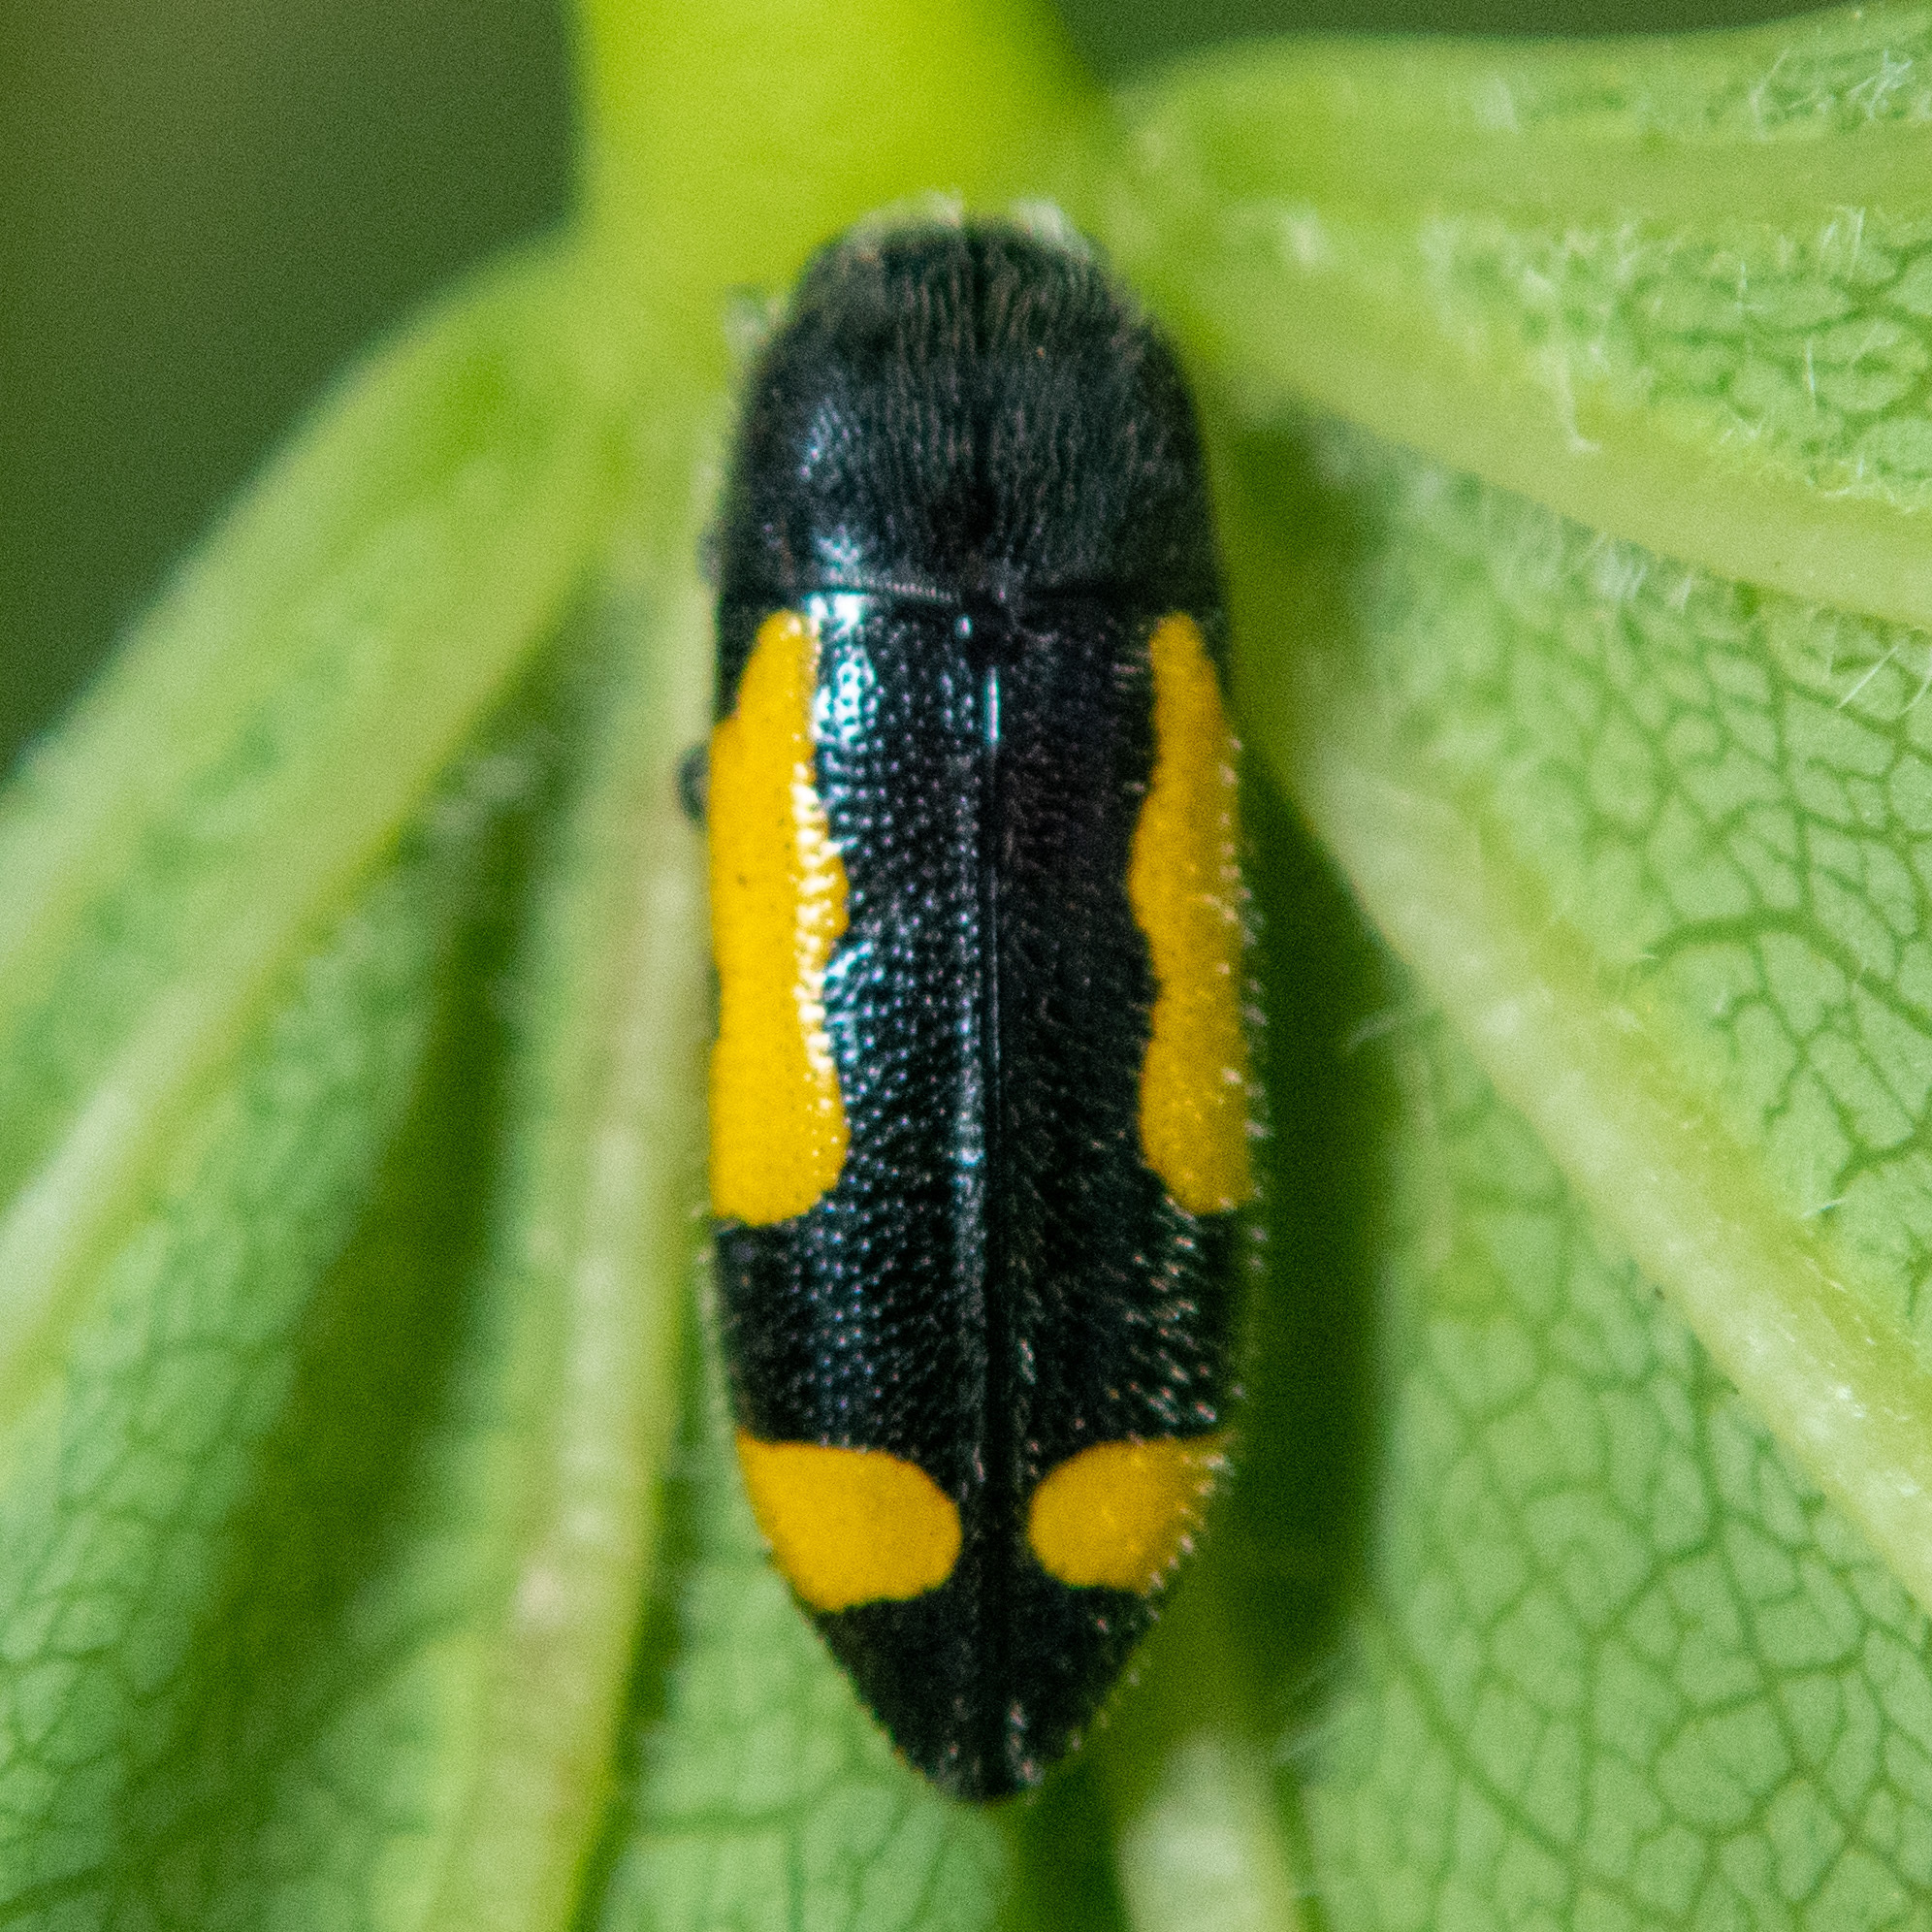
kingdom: Animalia
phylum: Arthropoda
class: Insecta
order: Coleoptera
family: Buprestidae
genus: Ptosima
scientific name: Ptosima gibbicollis
